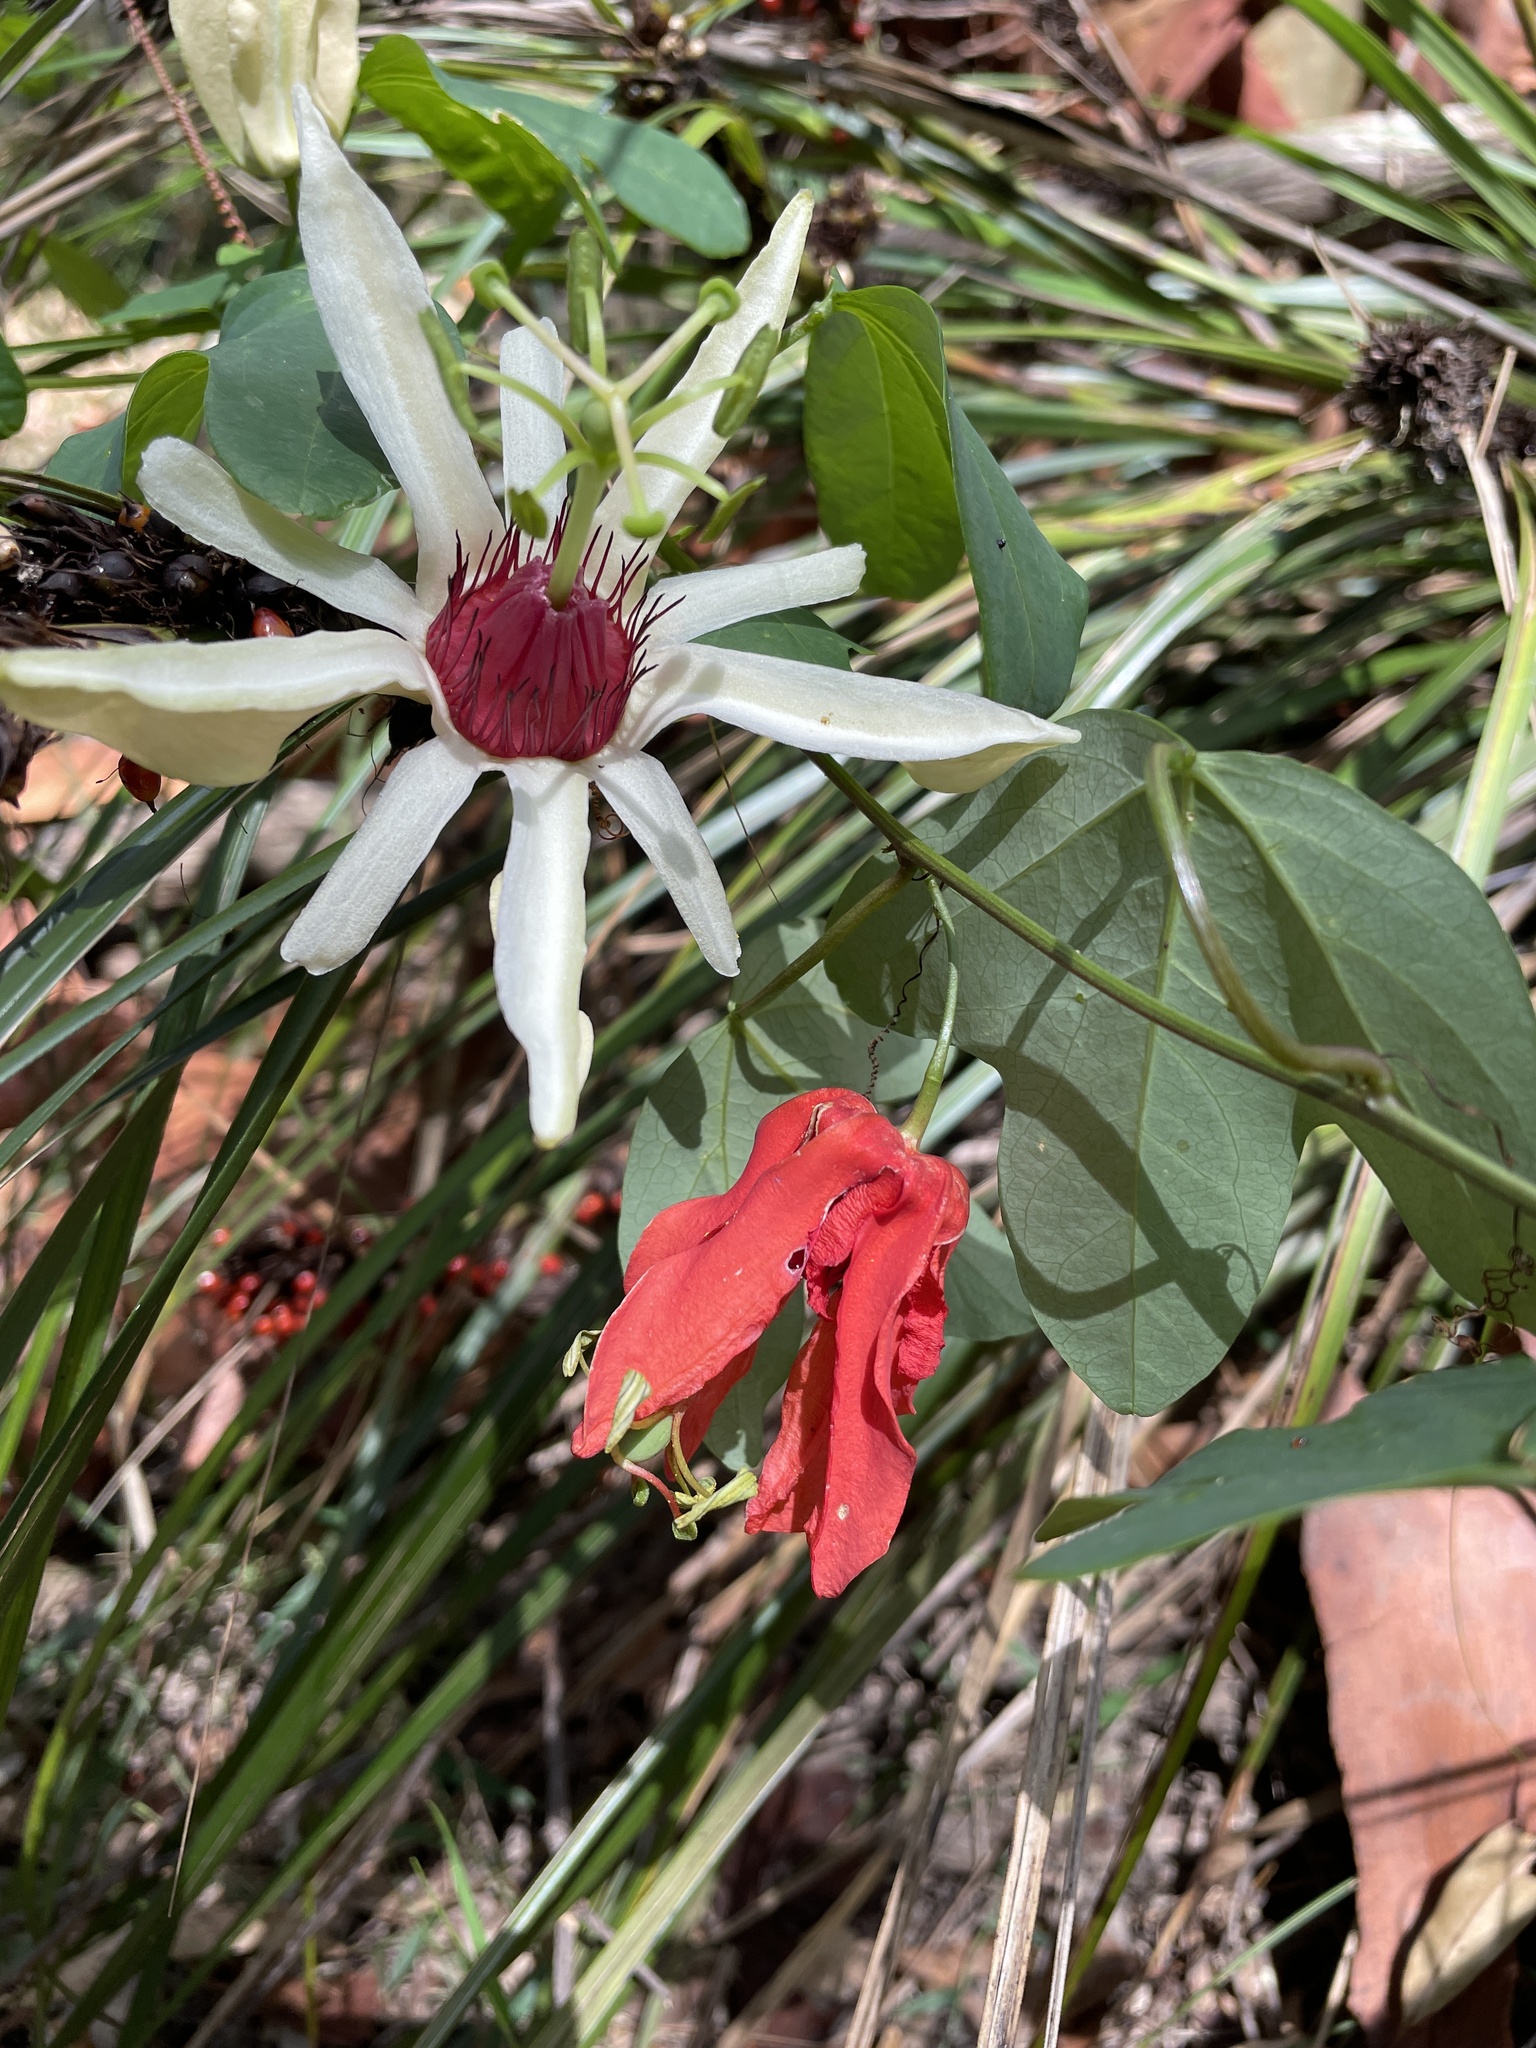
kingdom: Plantae
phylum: Tracheophyta
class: Magnoliopsida
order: Malpighiales
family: Passifloraceae
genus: Passiflora
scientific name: Passiflora aurantia
